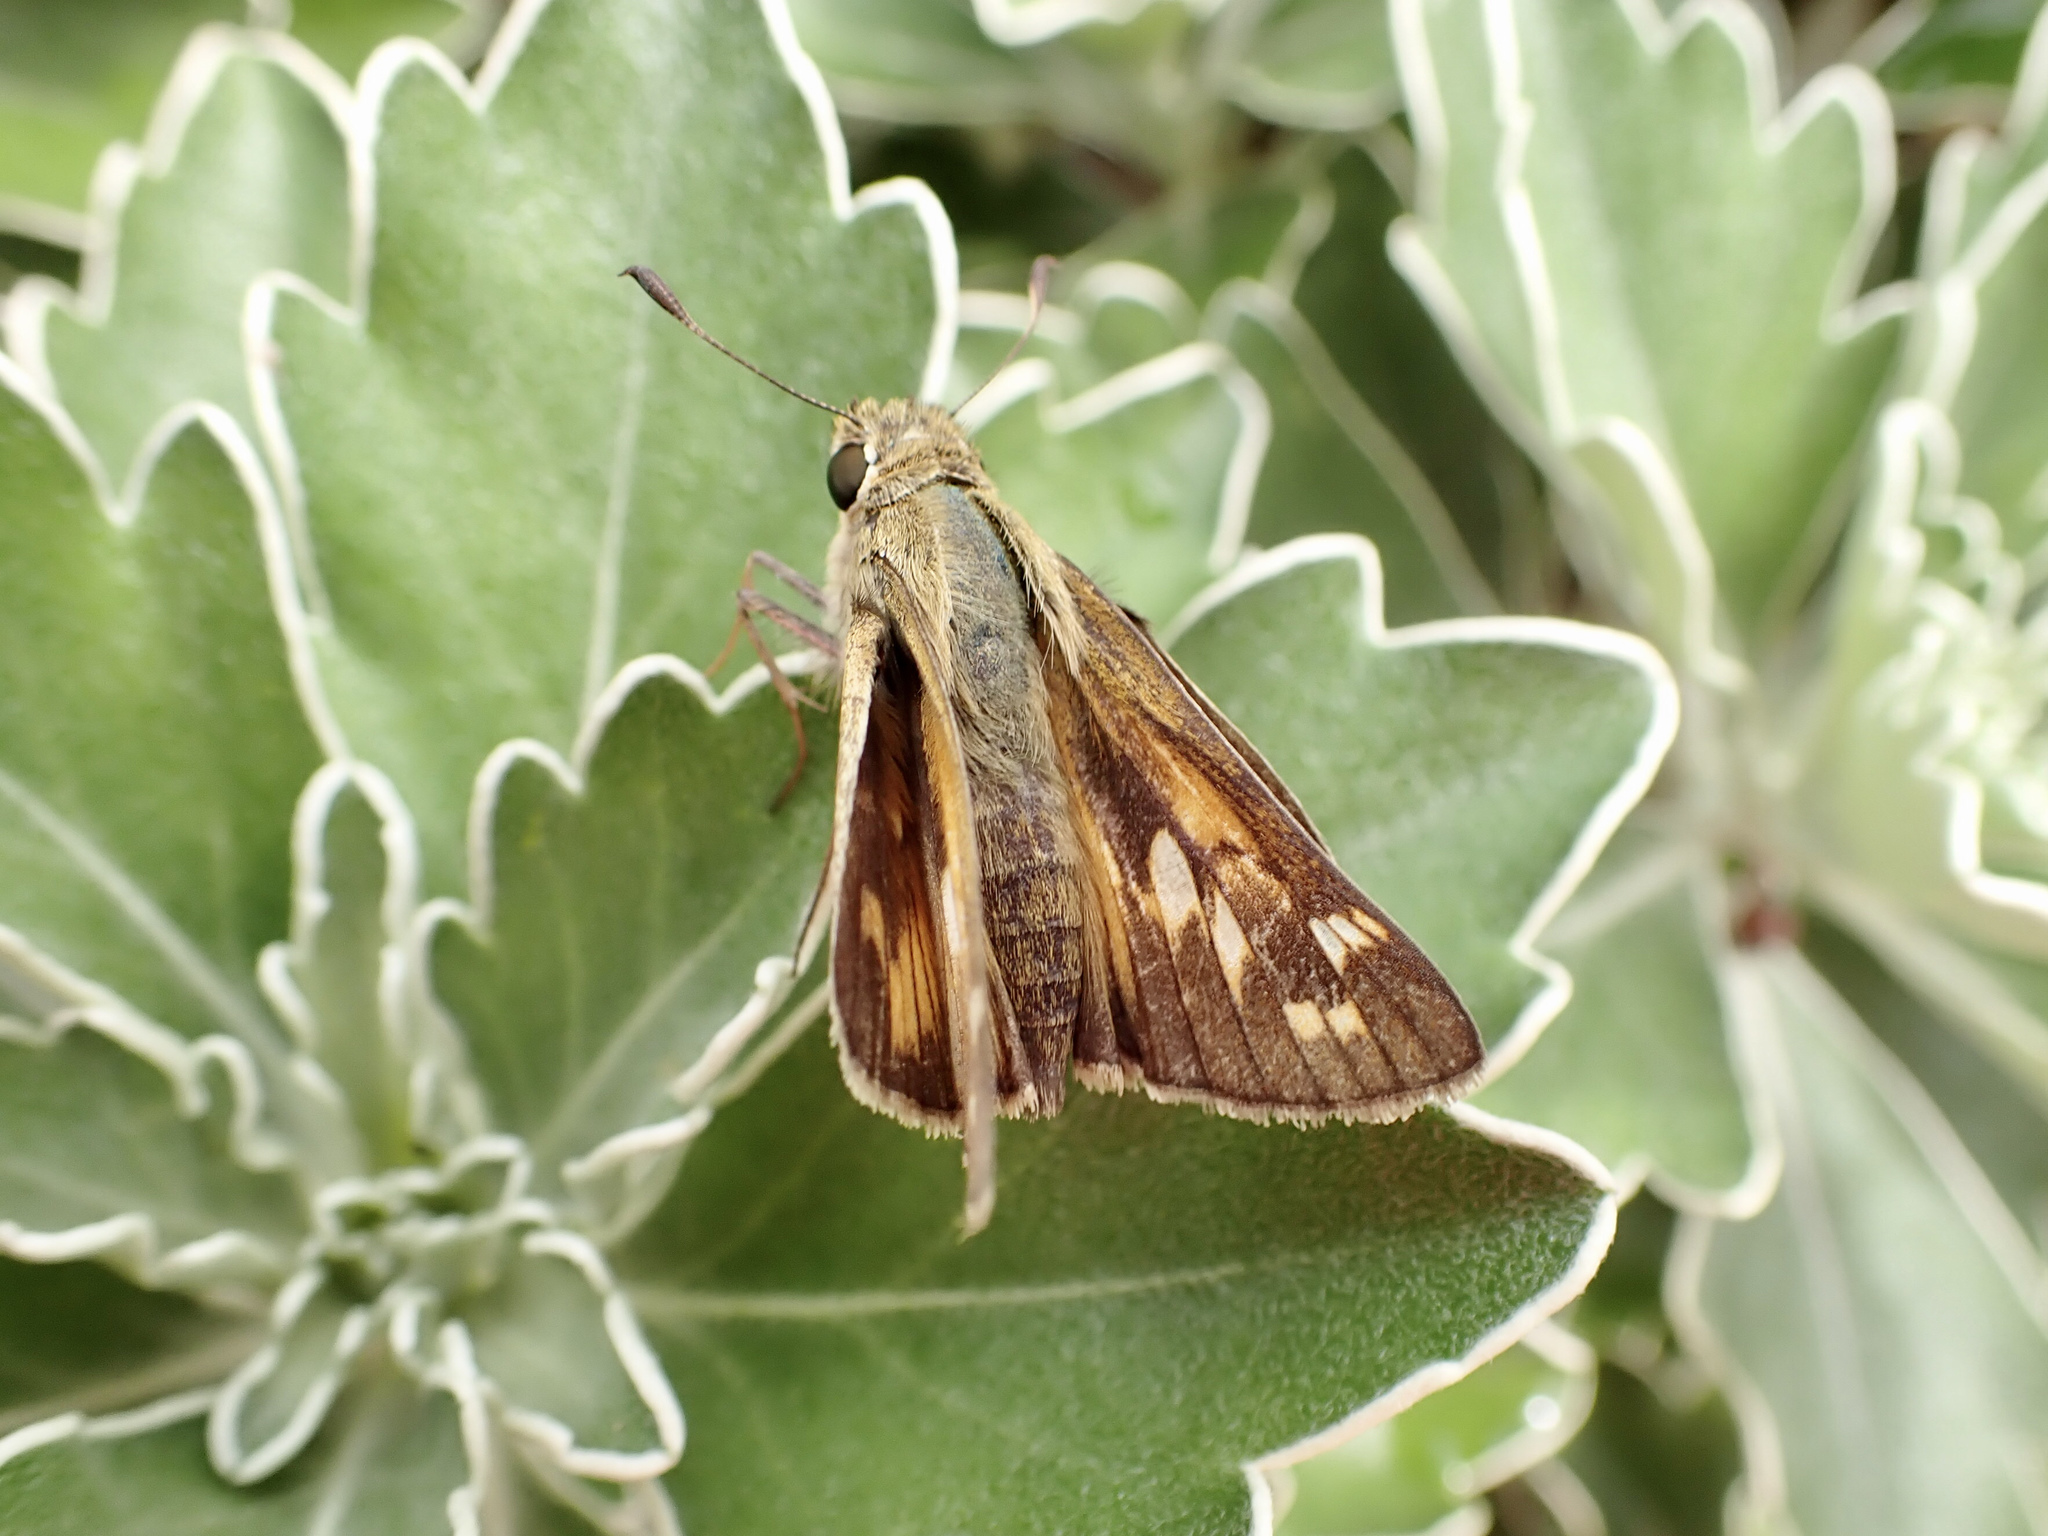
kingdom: Animalia
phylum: Arthropoda
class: Insecta
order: Lepidoptera
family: Hesperiidae
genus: Atalopedes
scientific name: Atalopedes
